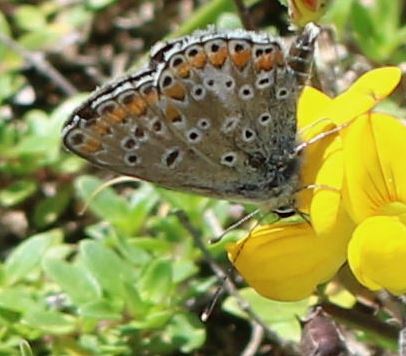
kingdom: Animalia
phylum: Arthropoda
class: Insecta
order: Lepidoptera
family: Lycaenidae
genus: Aricia
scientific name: Aricia agestis
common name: Brown argus
